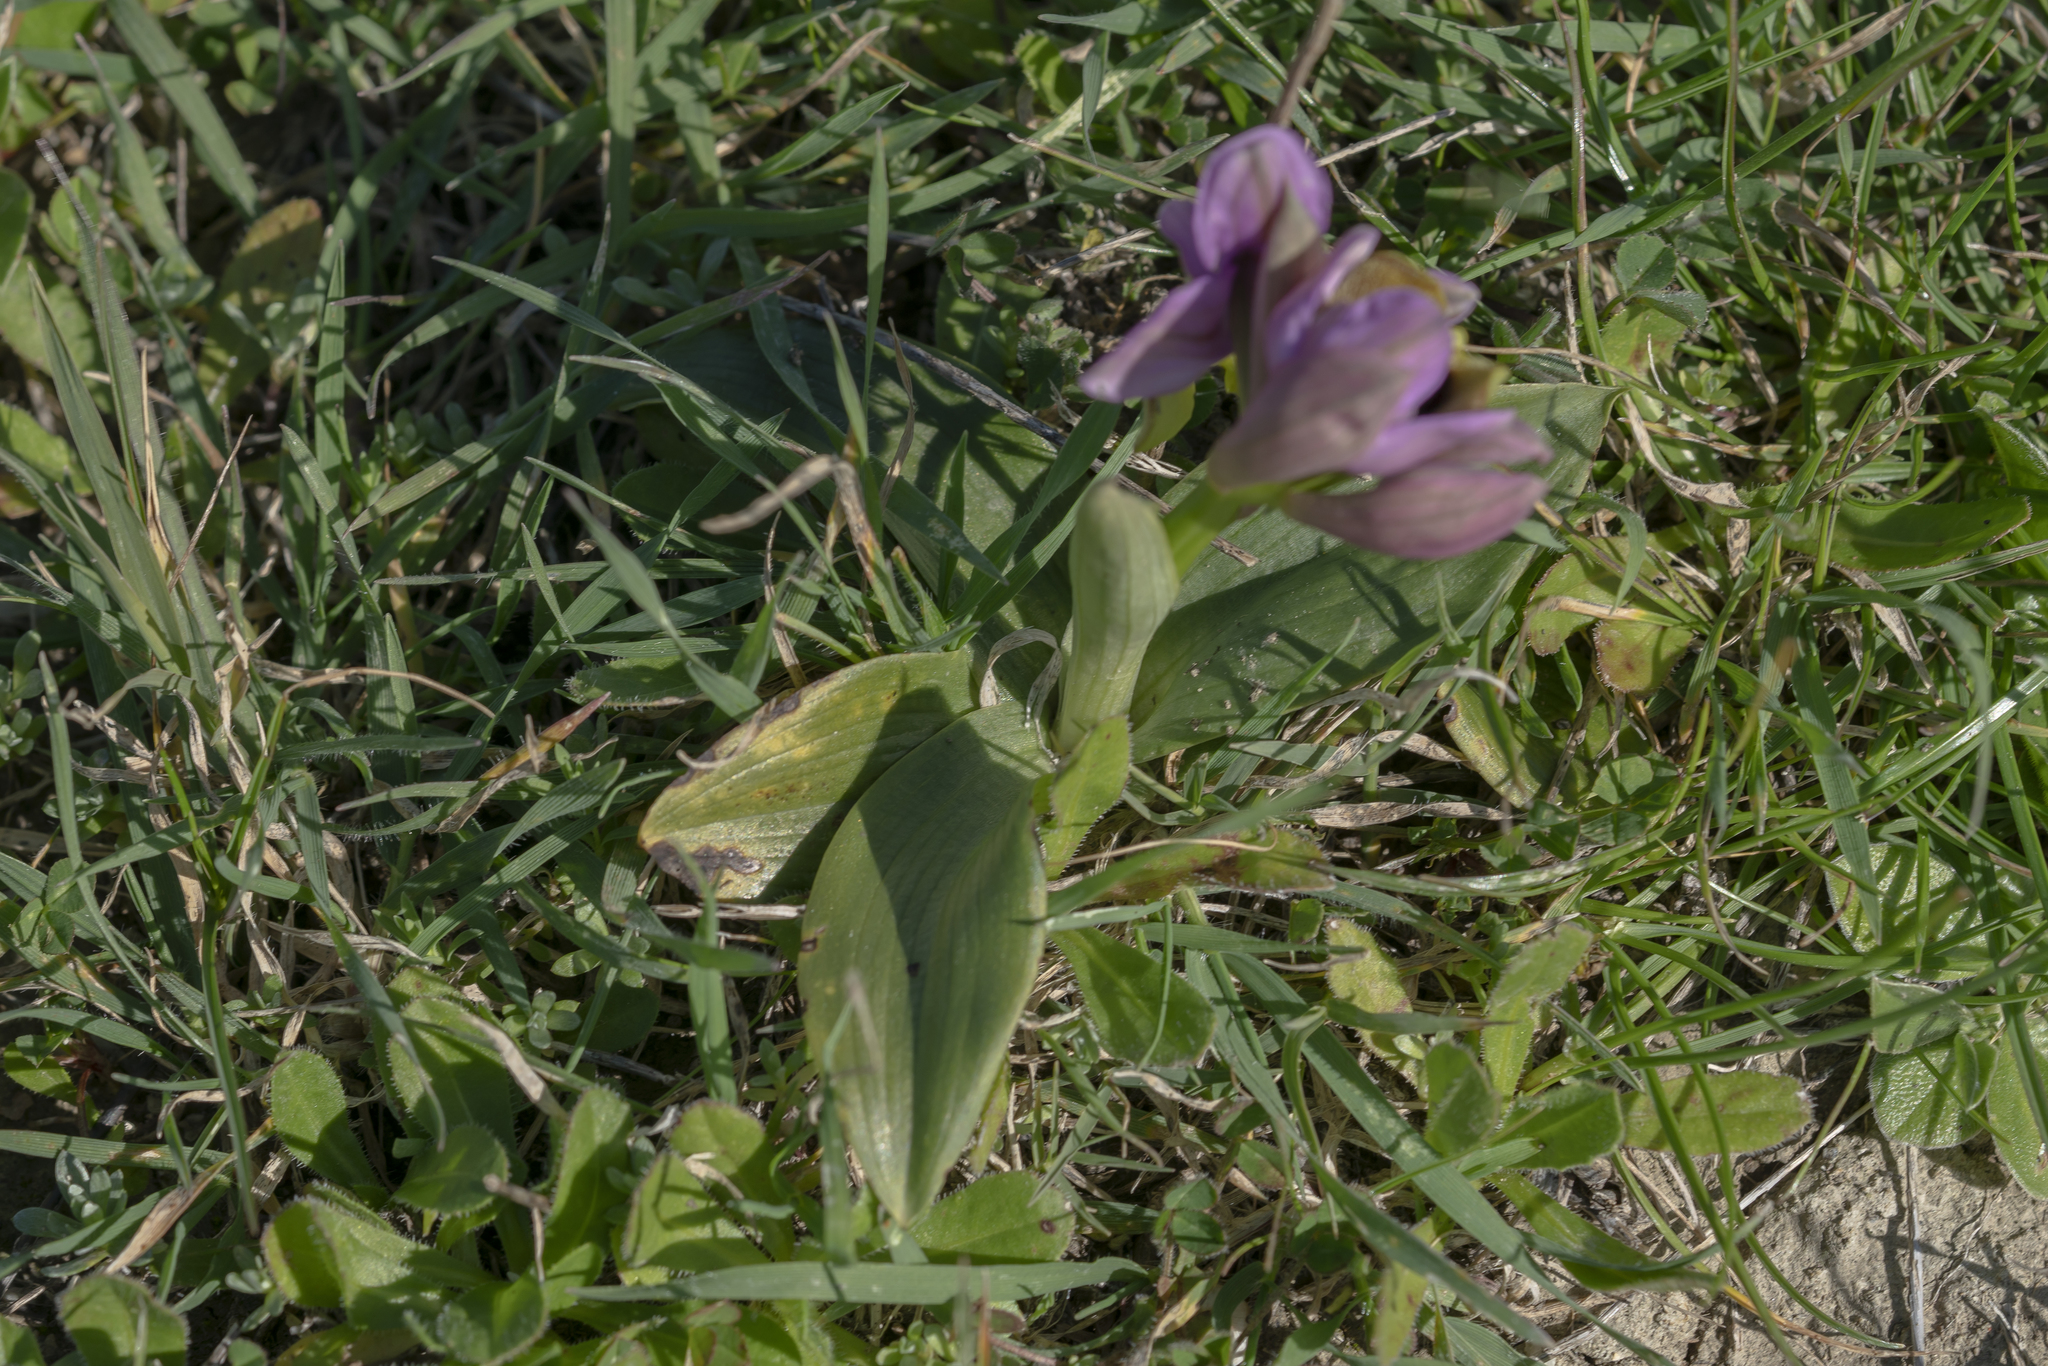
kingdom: Plantae
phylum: Tracheophyta
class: Liliopsida
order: Asparagales
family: Orchidaceae
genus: Ophrys
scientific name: Ophrys tenthredinifera
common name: Sawfly orchid
